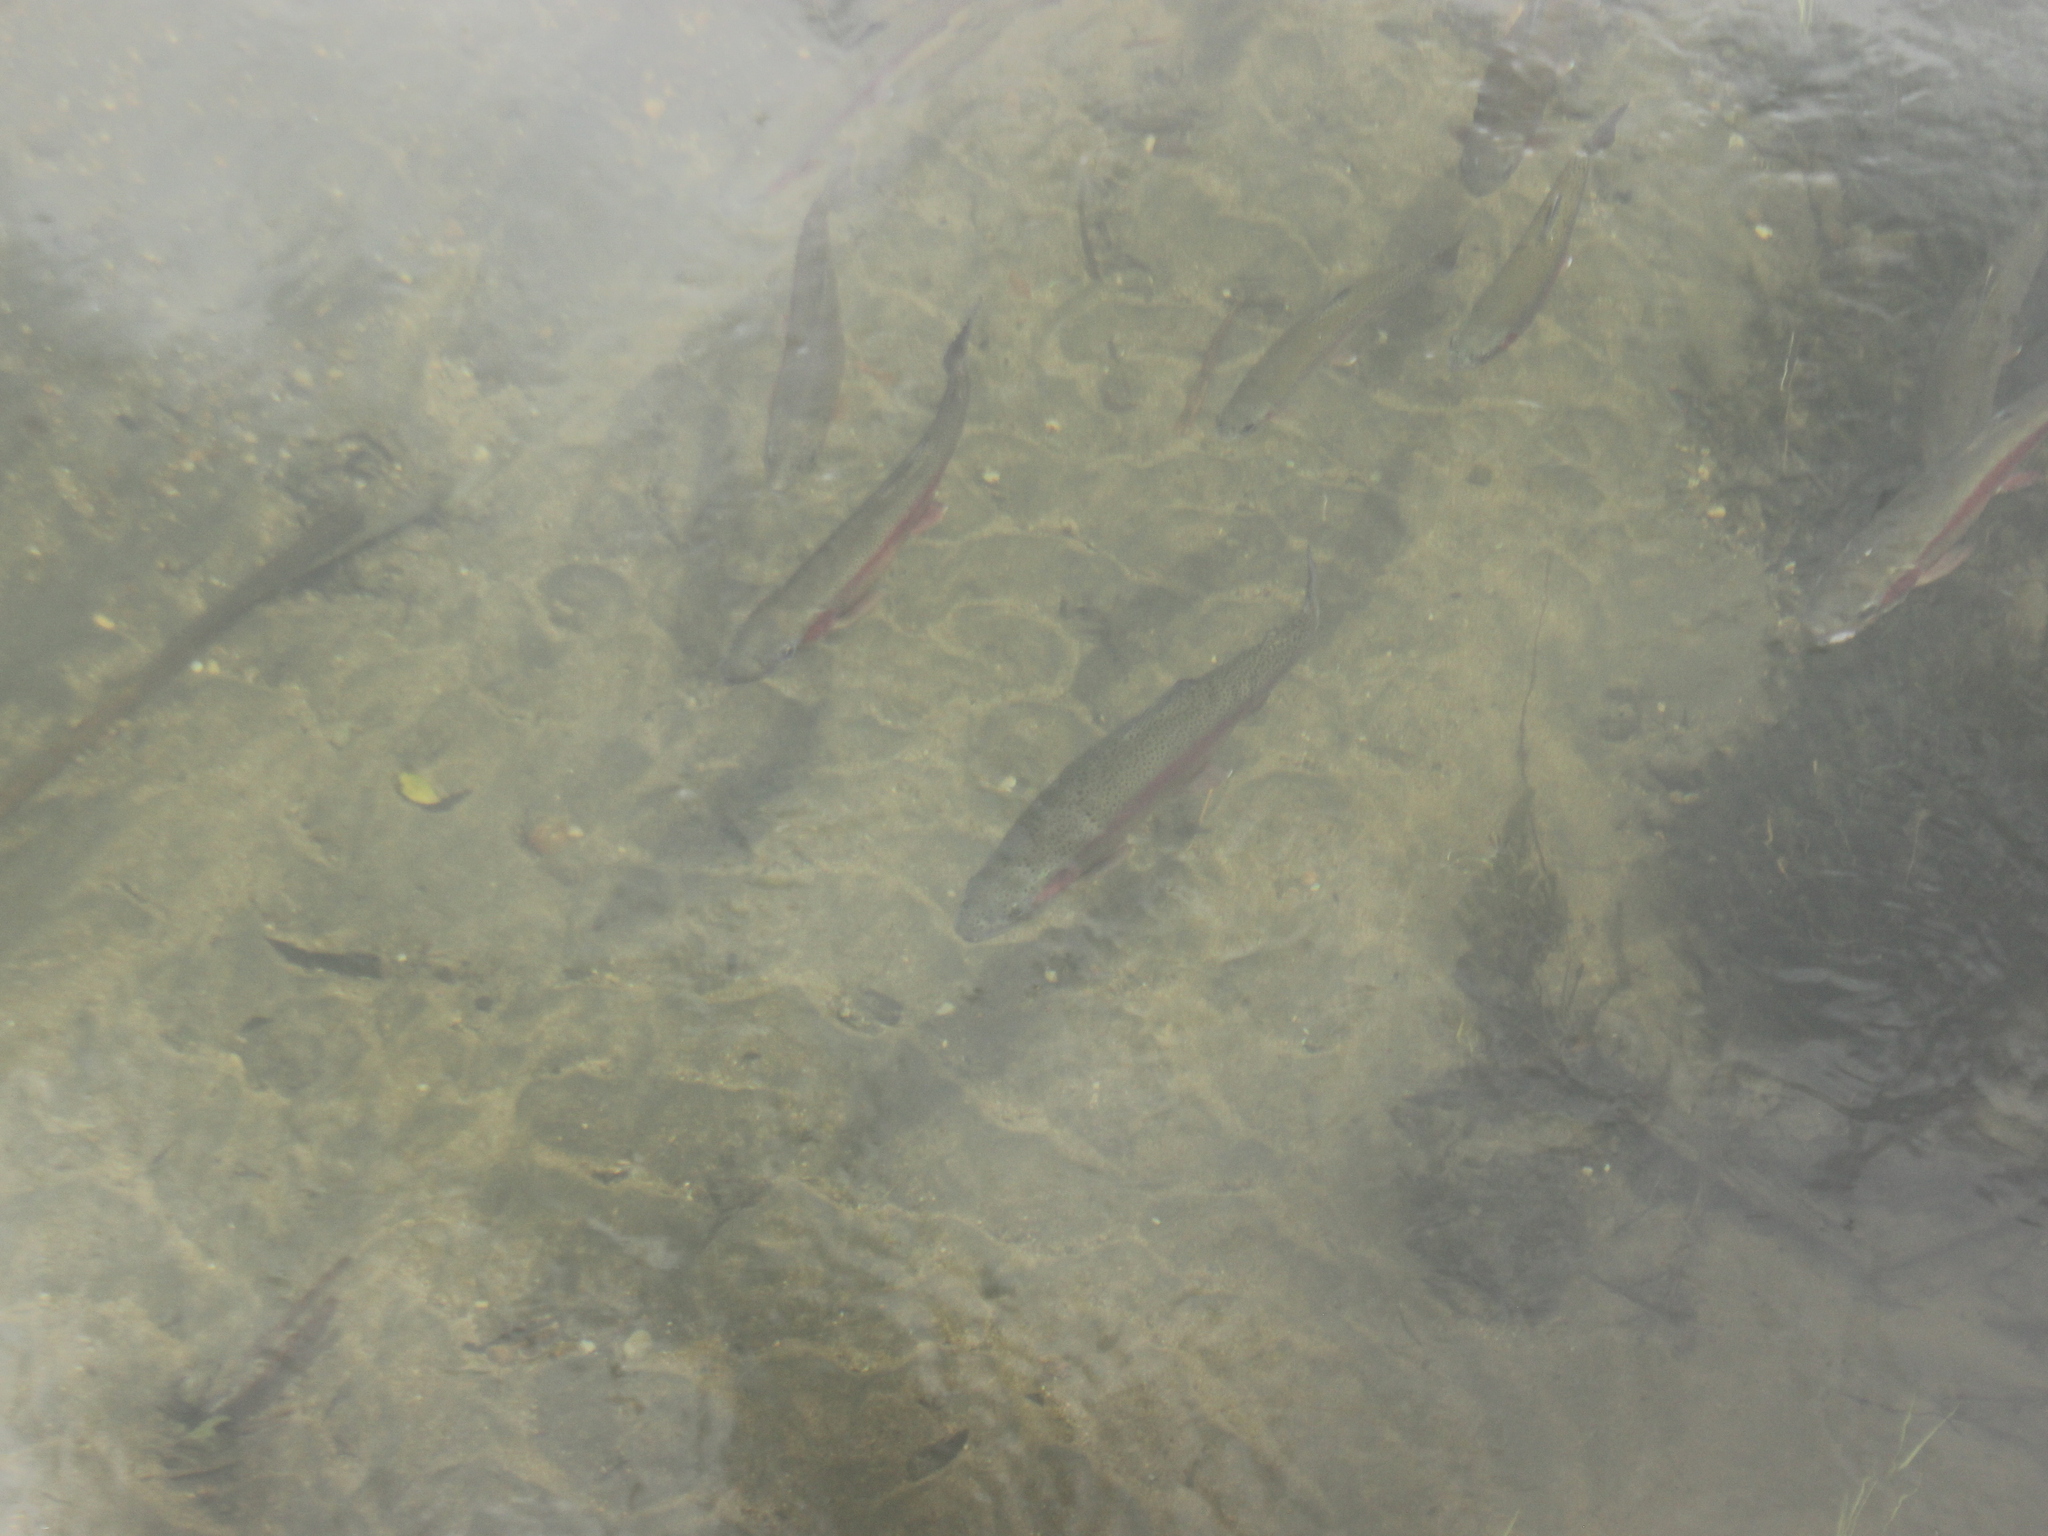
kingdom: Animalia
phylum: Chordata
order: Salmoniformes
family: Salmonidae
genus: Oncorhynchus
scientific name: Oncorhynchus mykiss
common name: Rainbow trout
